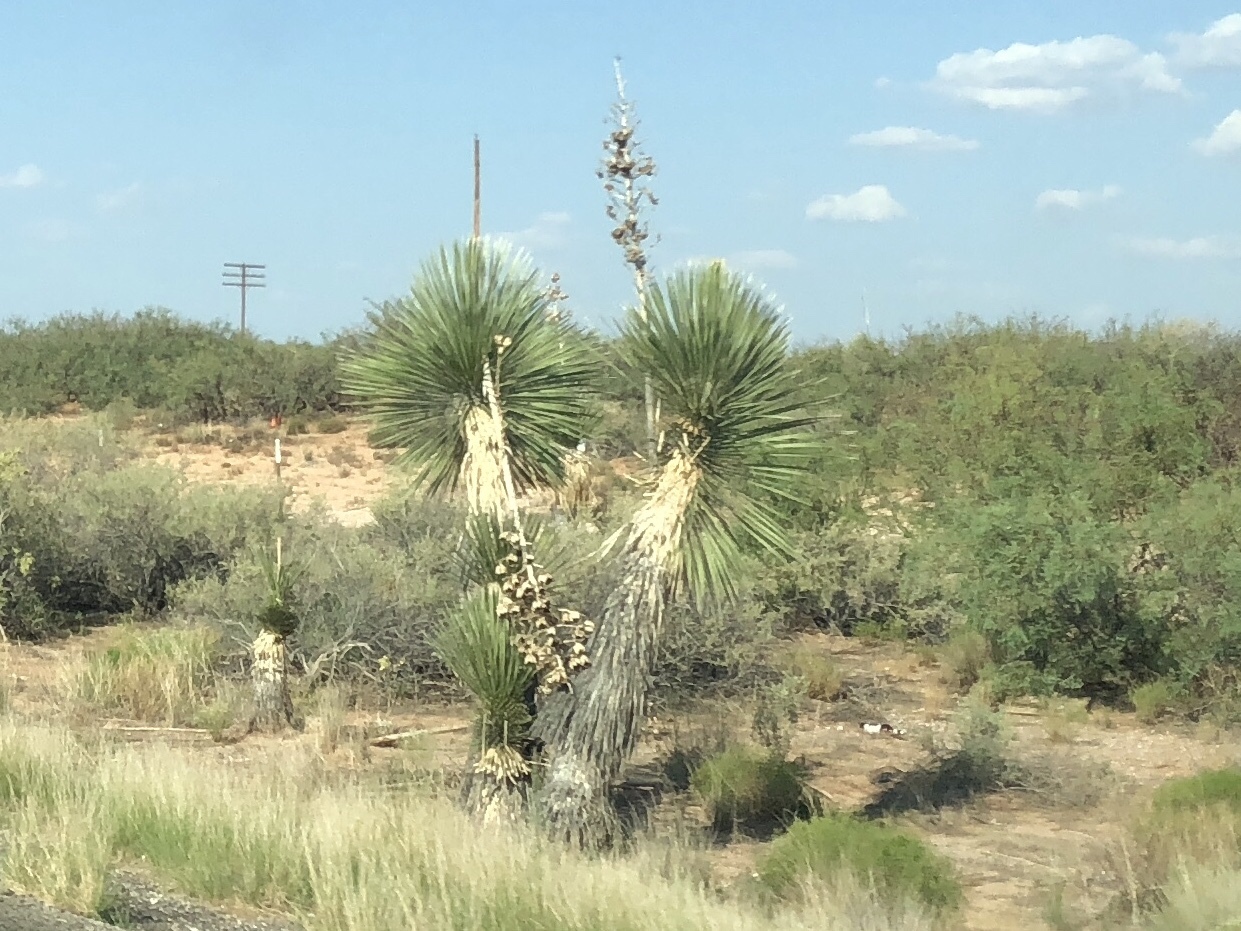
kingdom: Plantae
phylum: Tracheophyta
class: Liliopsida
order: Asparagales
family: Asparagaceae
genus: Yucca
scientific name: Yucca elata
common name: Palmella
